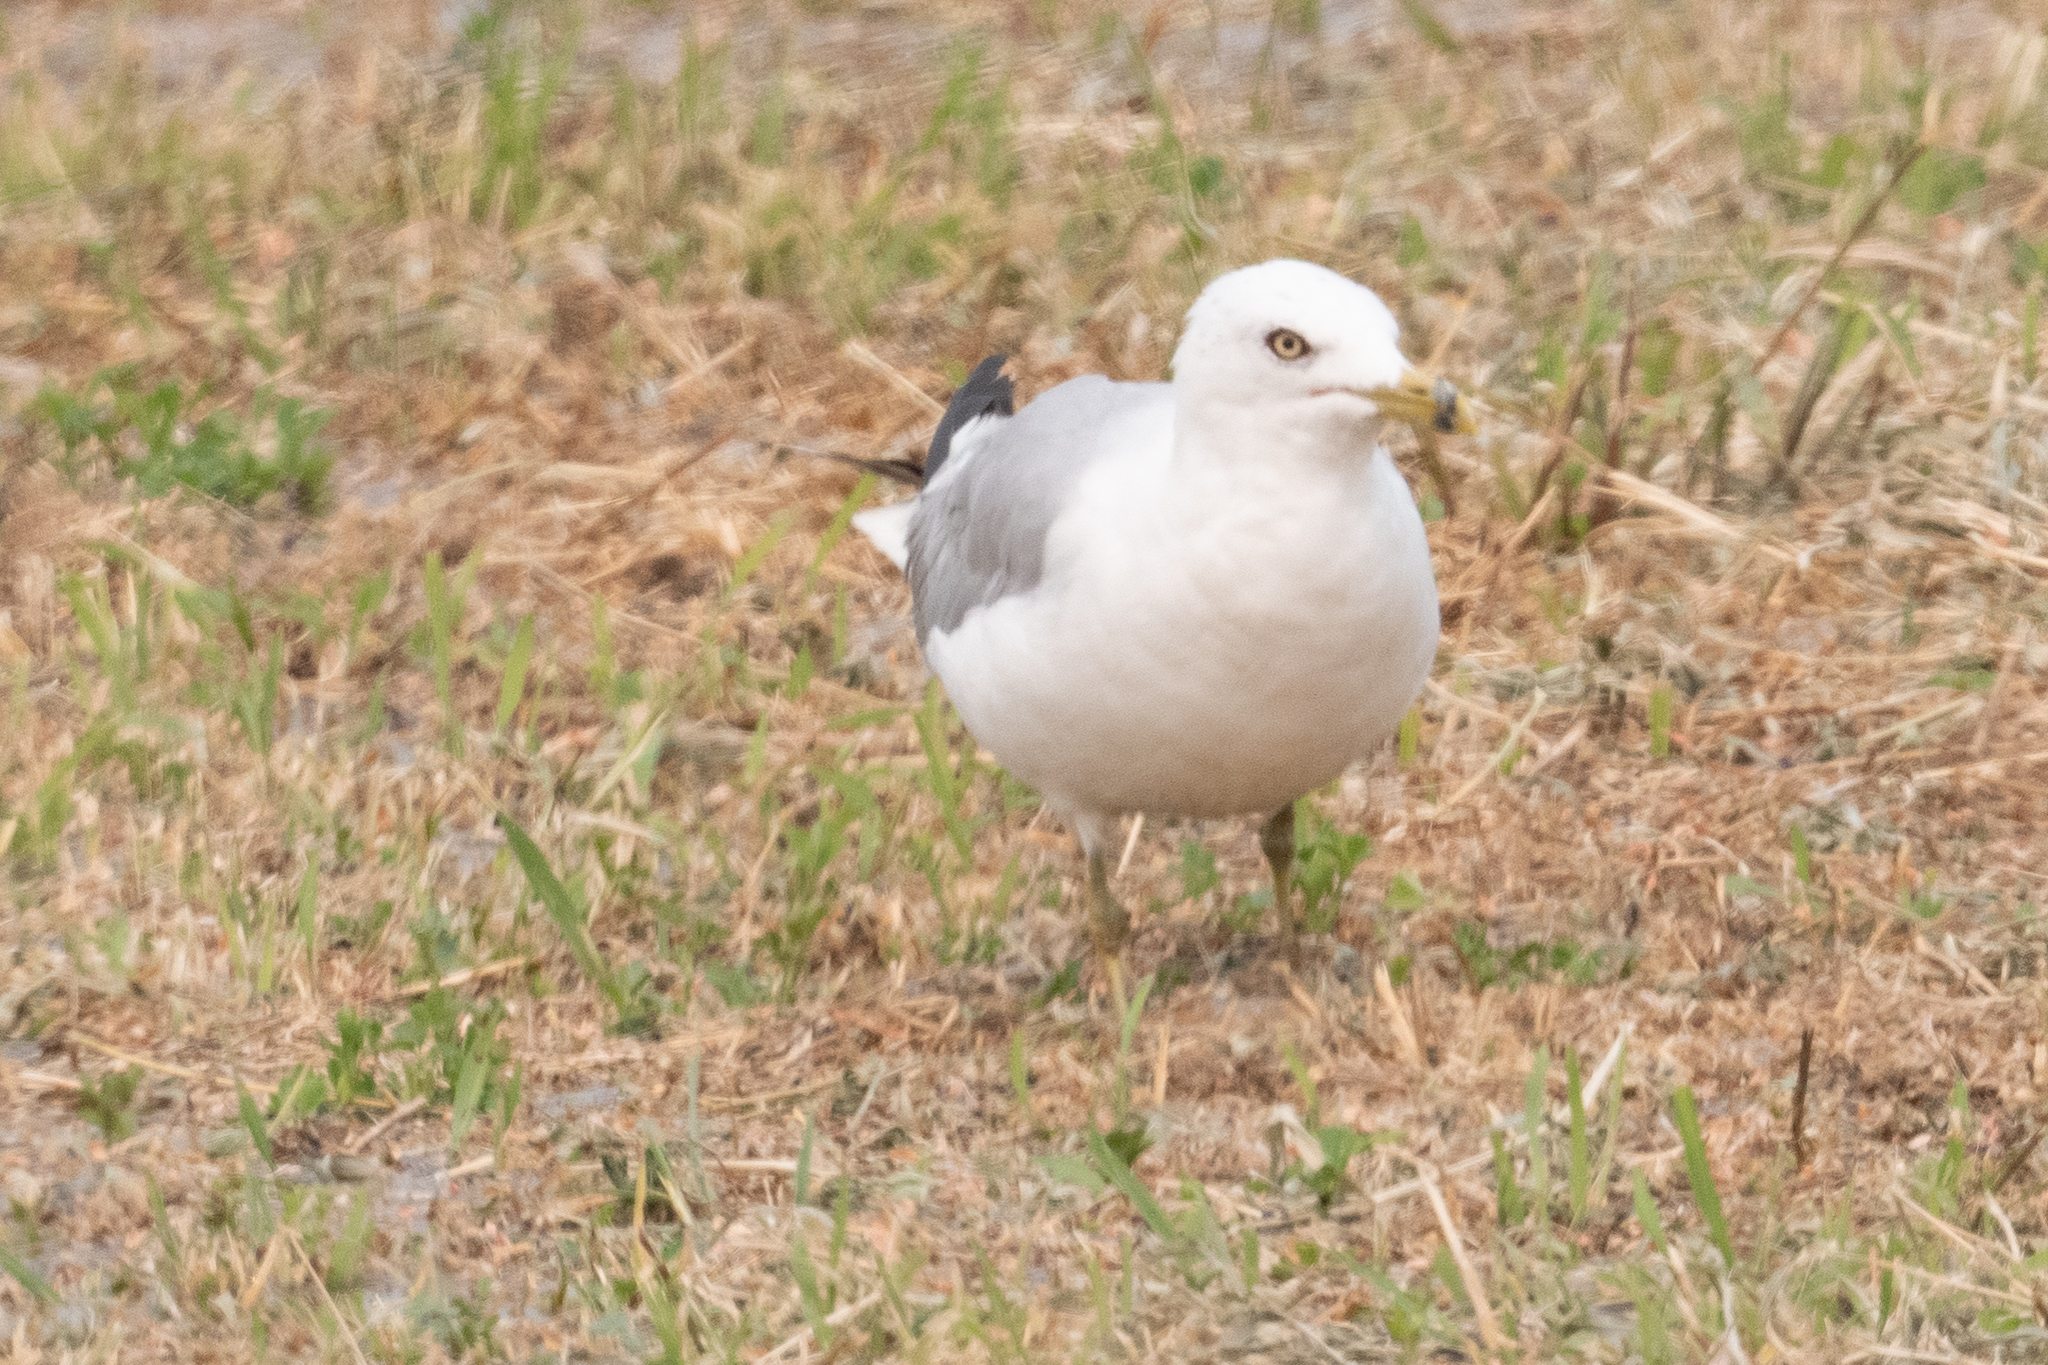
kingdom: Animalia
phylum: Chordata
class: Aves
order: Charadriiformes
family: Laridae
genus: Larus
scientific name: Larus delawarensis
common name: Ring-billed gull
